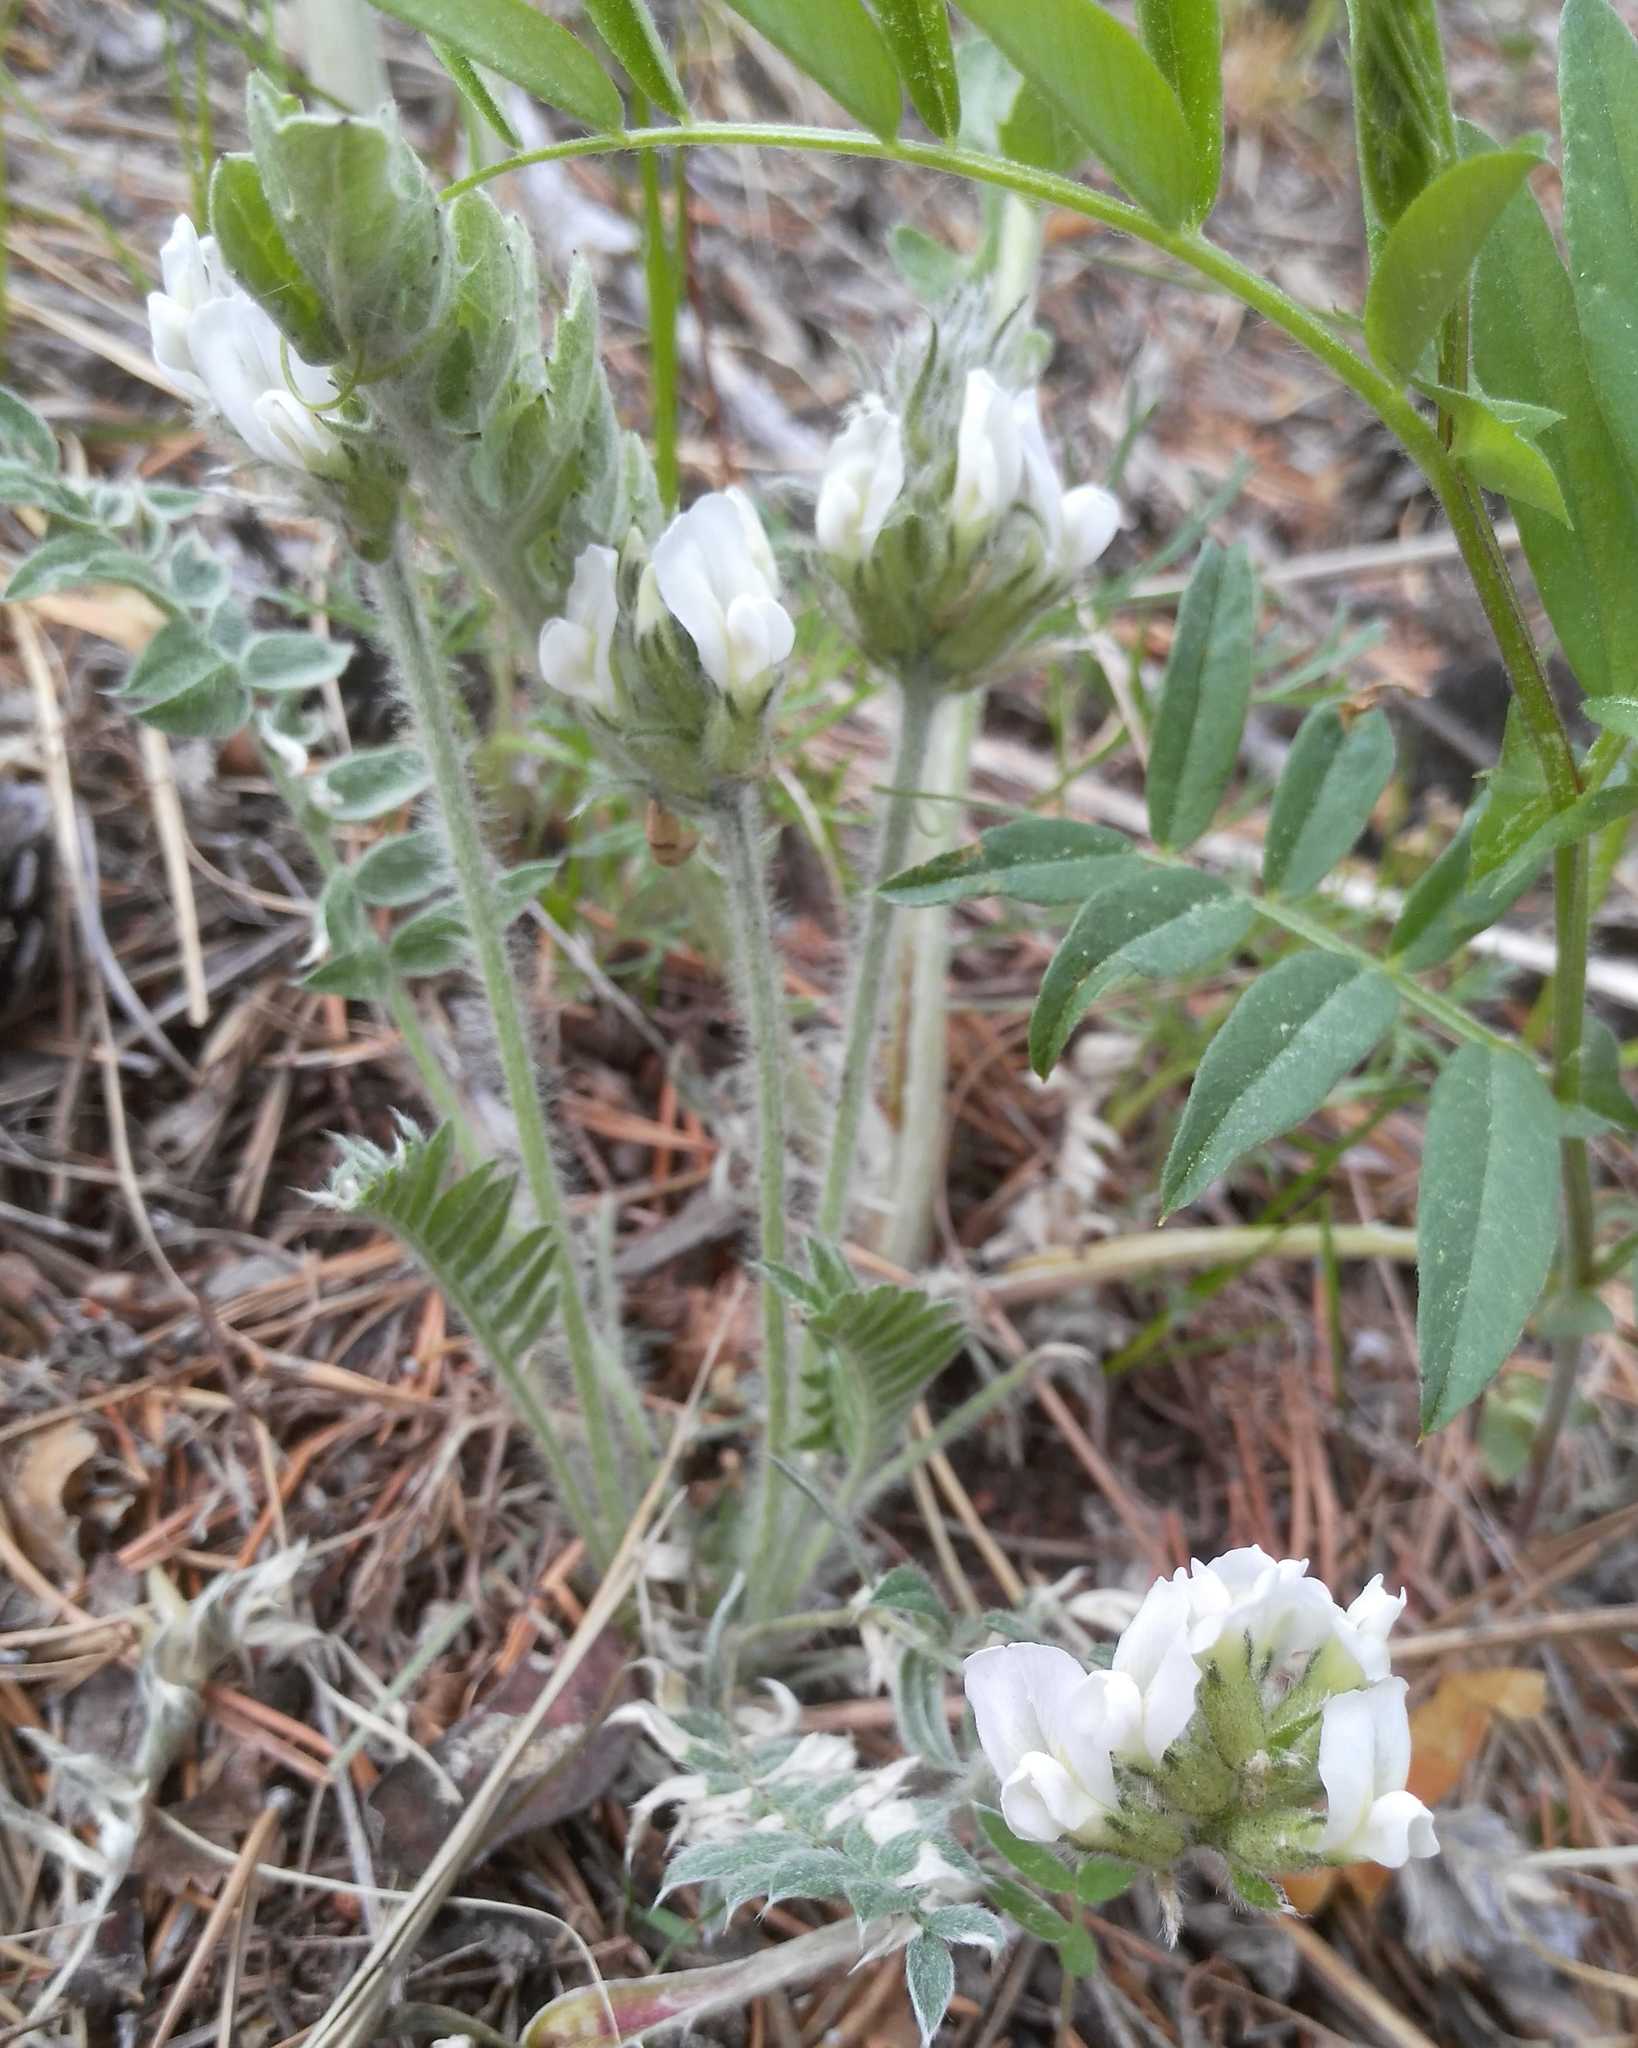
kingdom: Plantae
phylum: Tracheophyta
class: Magnoliopsida
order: Fabales
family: Fabaceae
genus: Oxytropis
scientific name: Oxytropis strobilacea
